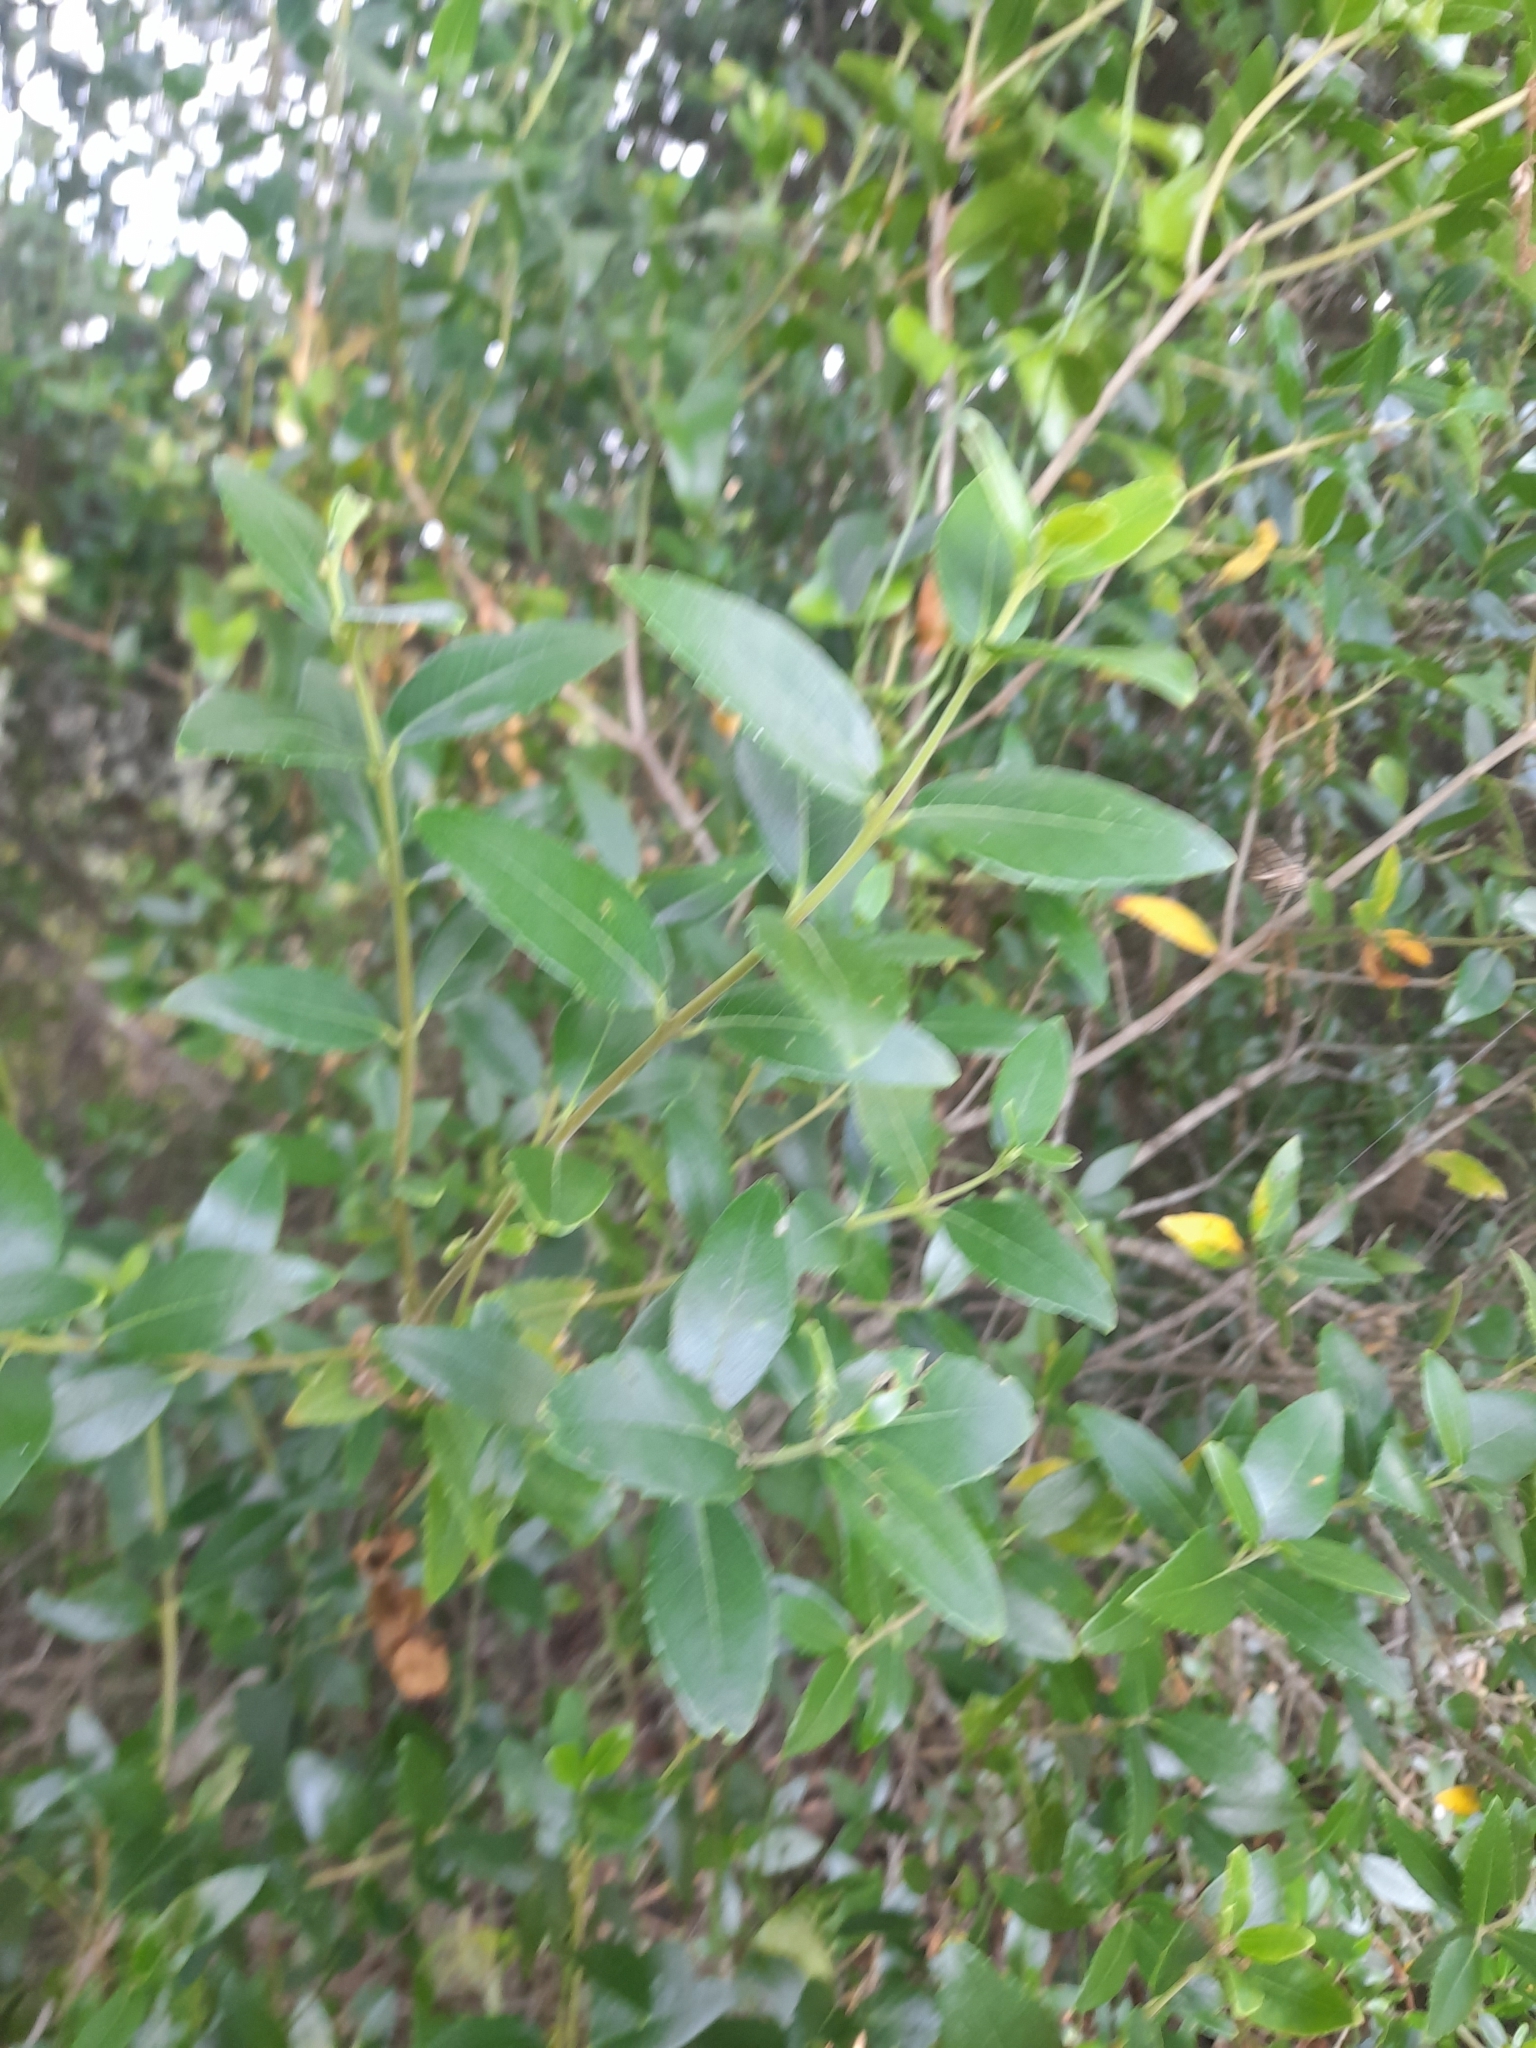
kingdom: Plantae
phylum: Tracheophyta
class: Magnoliopsida
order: Lamiales
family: Oleaceae
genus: Phillyrea
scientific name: Phillyrea latifolia
